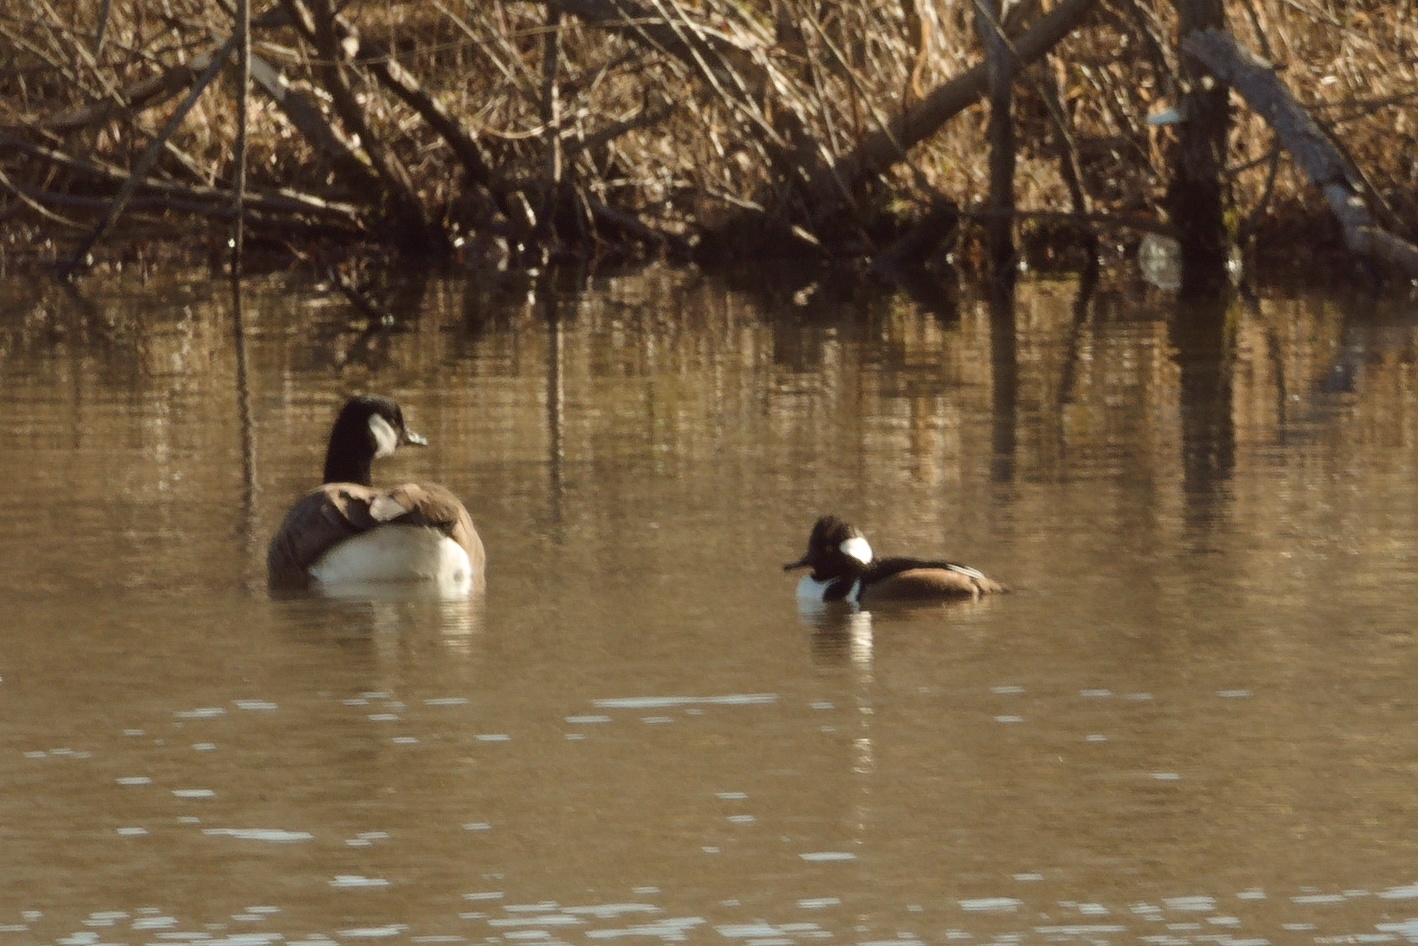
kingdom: Animalia
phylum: Chordata
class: Aves
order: Anseriformes
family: Anatidae
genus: Lophodytes
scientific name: Lophodytes cucullatus
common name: Hooded merganser
